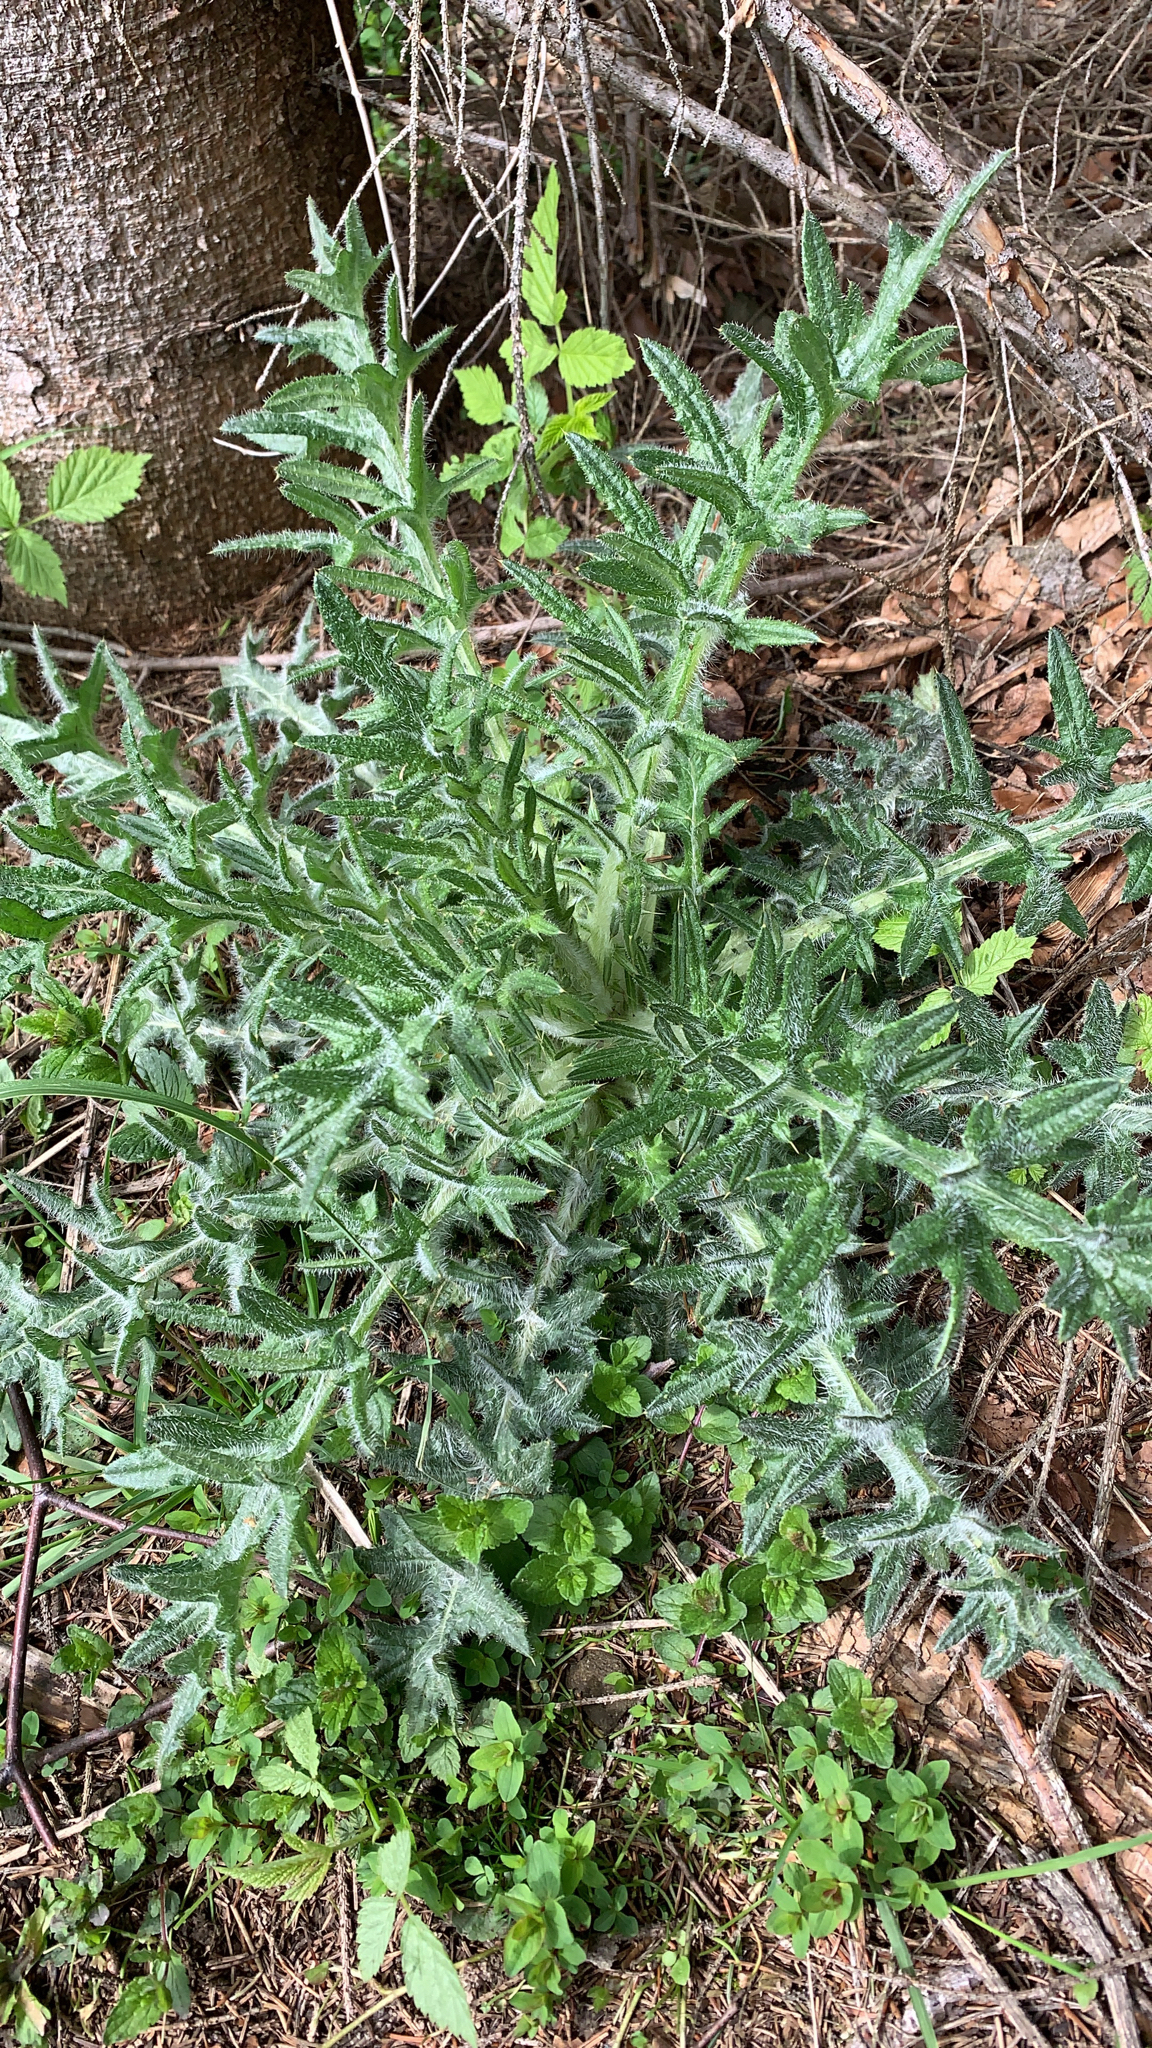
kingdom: Plantae
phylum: Tracheophyta
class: Magnoliopsida
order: Asterales
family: Asteraceae
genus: Cirsium
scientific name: Cirsium vulgare
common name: Bull thistle
